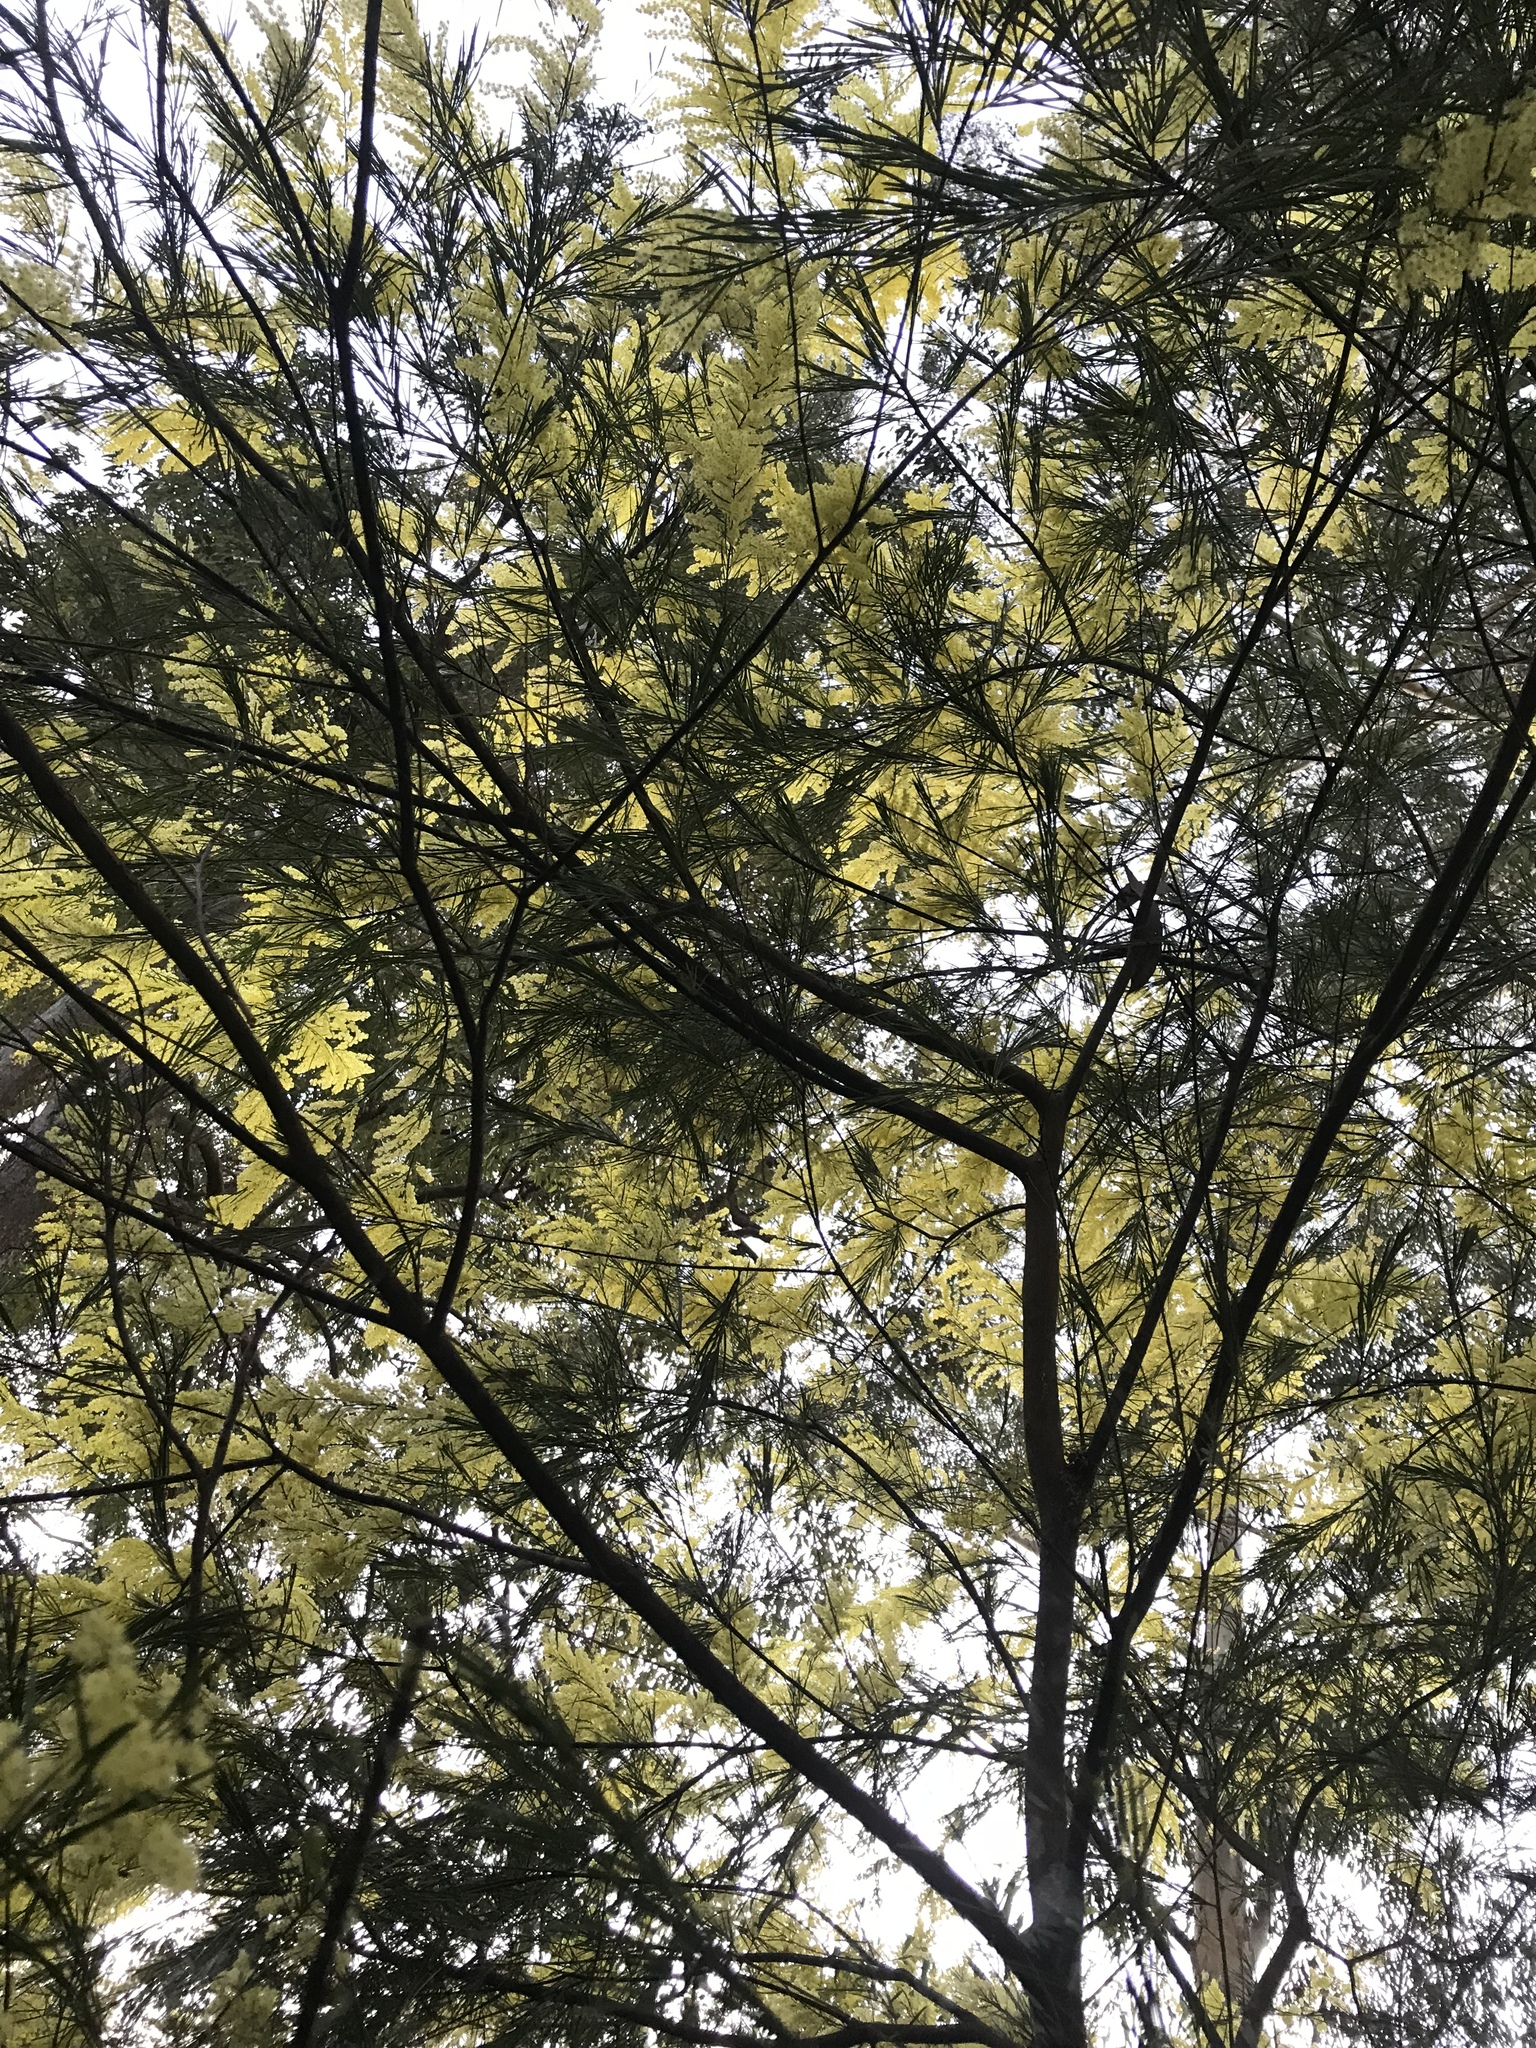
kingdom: Plantae
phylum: Tracheophyta
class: Magnoliopsida
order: Fabales
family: Fabaceae
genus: Acacia
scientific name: Acacia fimbriata
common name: Brisbane golden wattle
